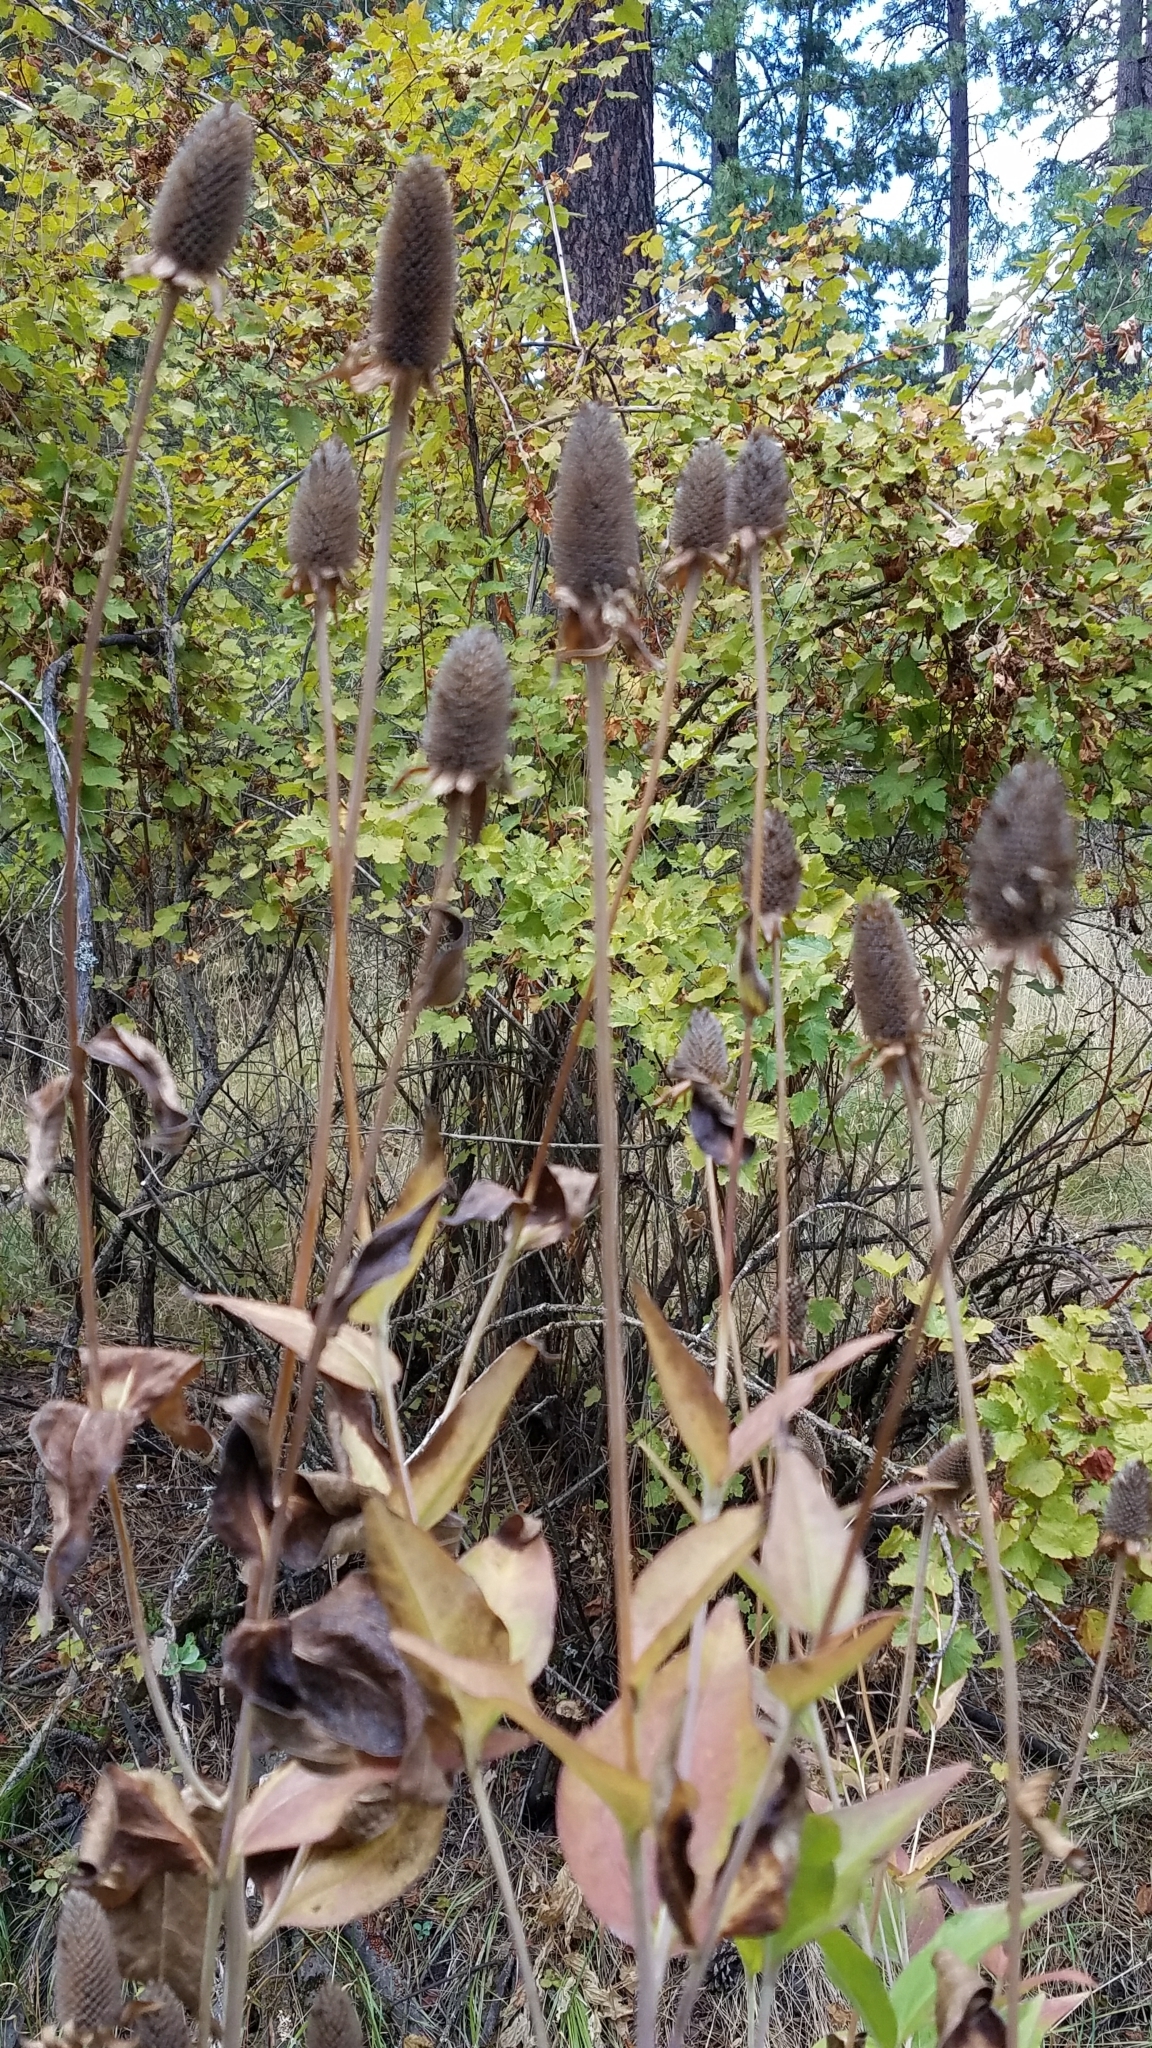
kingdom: Plantae
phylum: Tracheophyta
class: Magnoliopsida
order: Asterales
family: Asteraceae
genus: Rudbeckia
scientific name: Rudbeckia occidentalis
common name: Western coneflower
